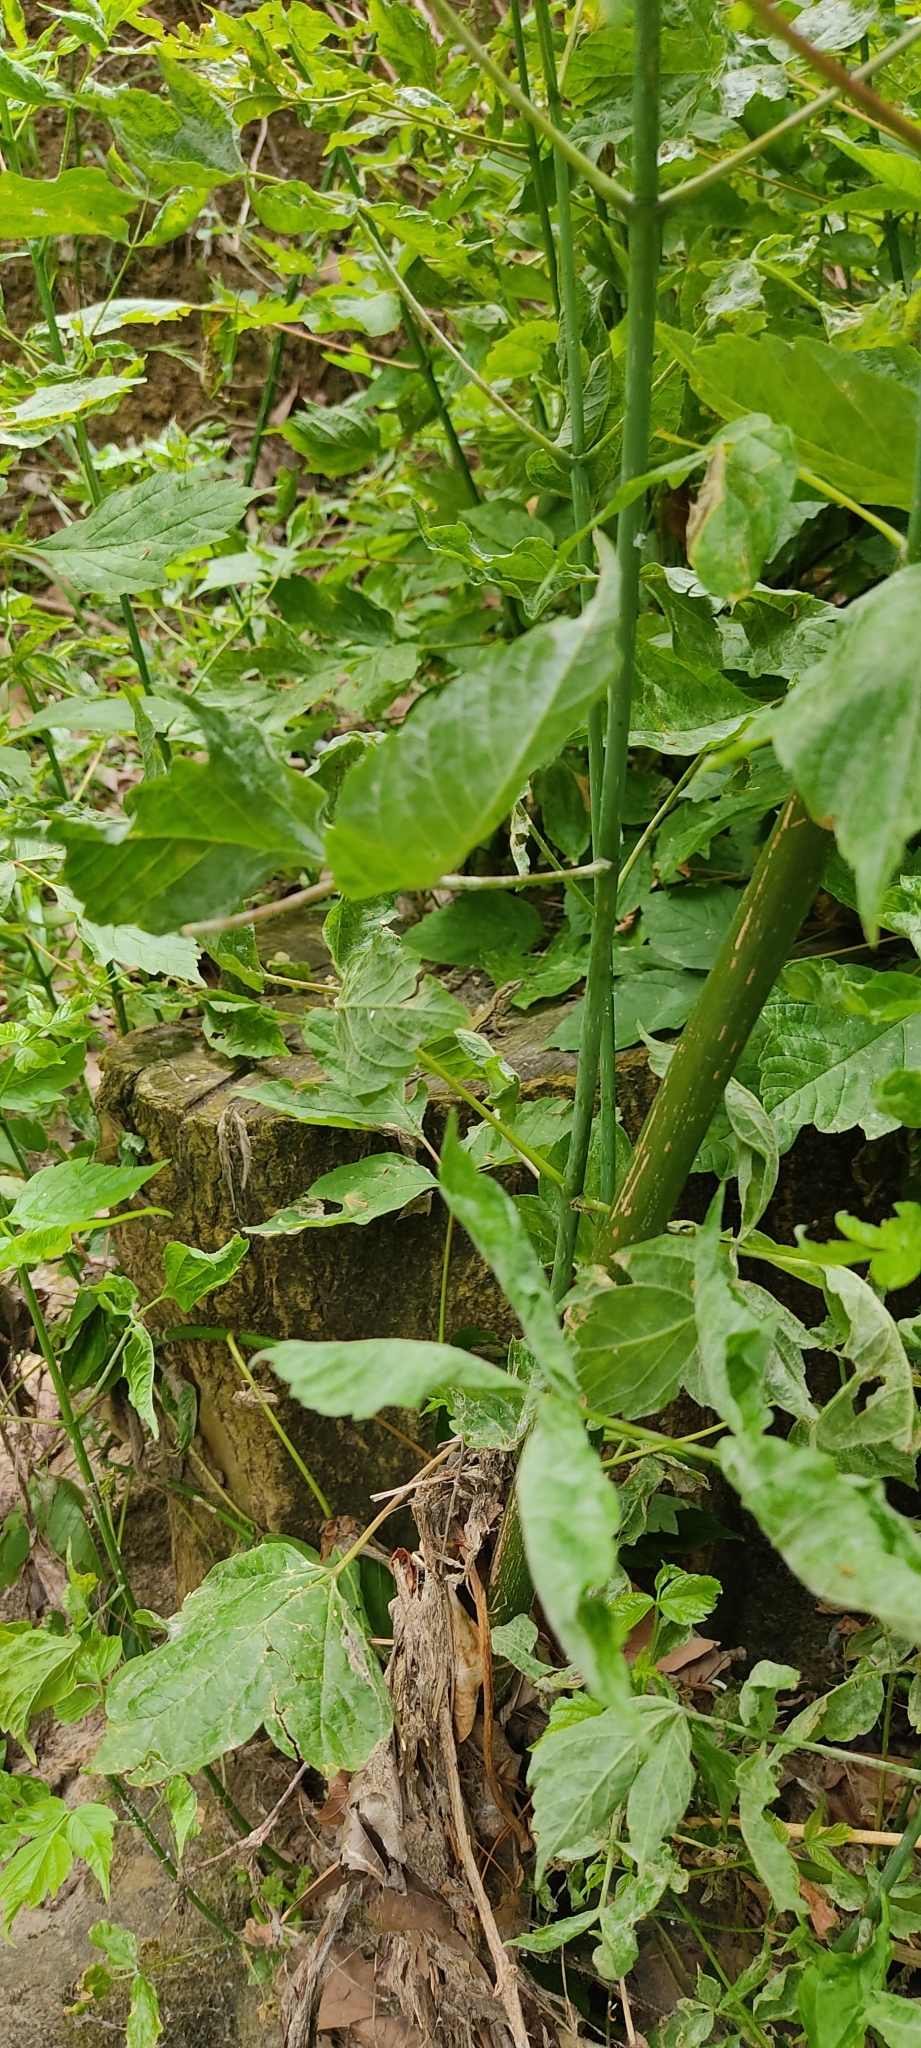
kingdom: Animalia
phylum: Chordata
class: Squamata
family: Lacertidae
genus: Podarcis
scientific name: Podarcis muralis
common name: Common wall lizard
